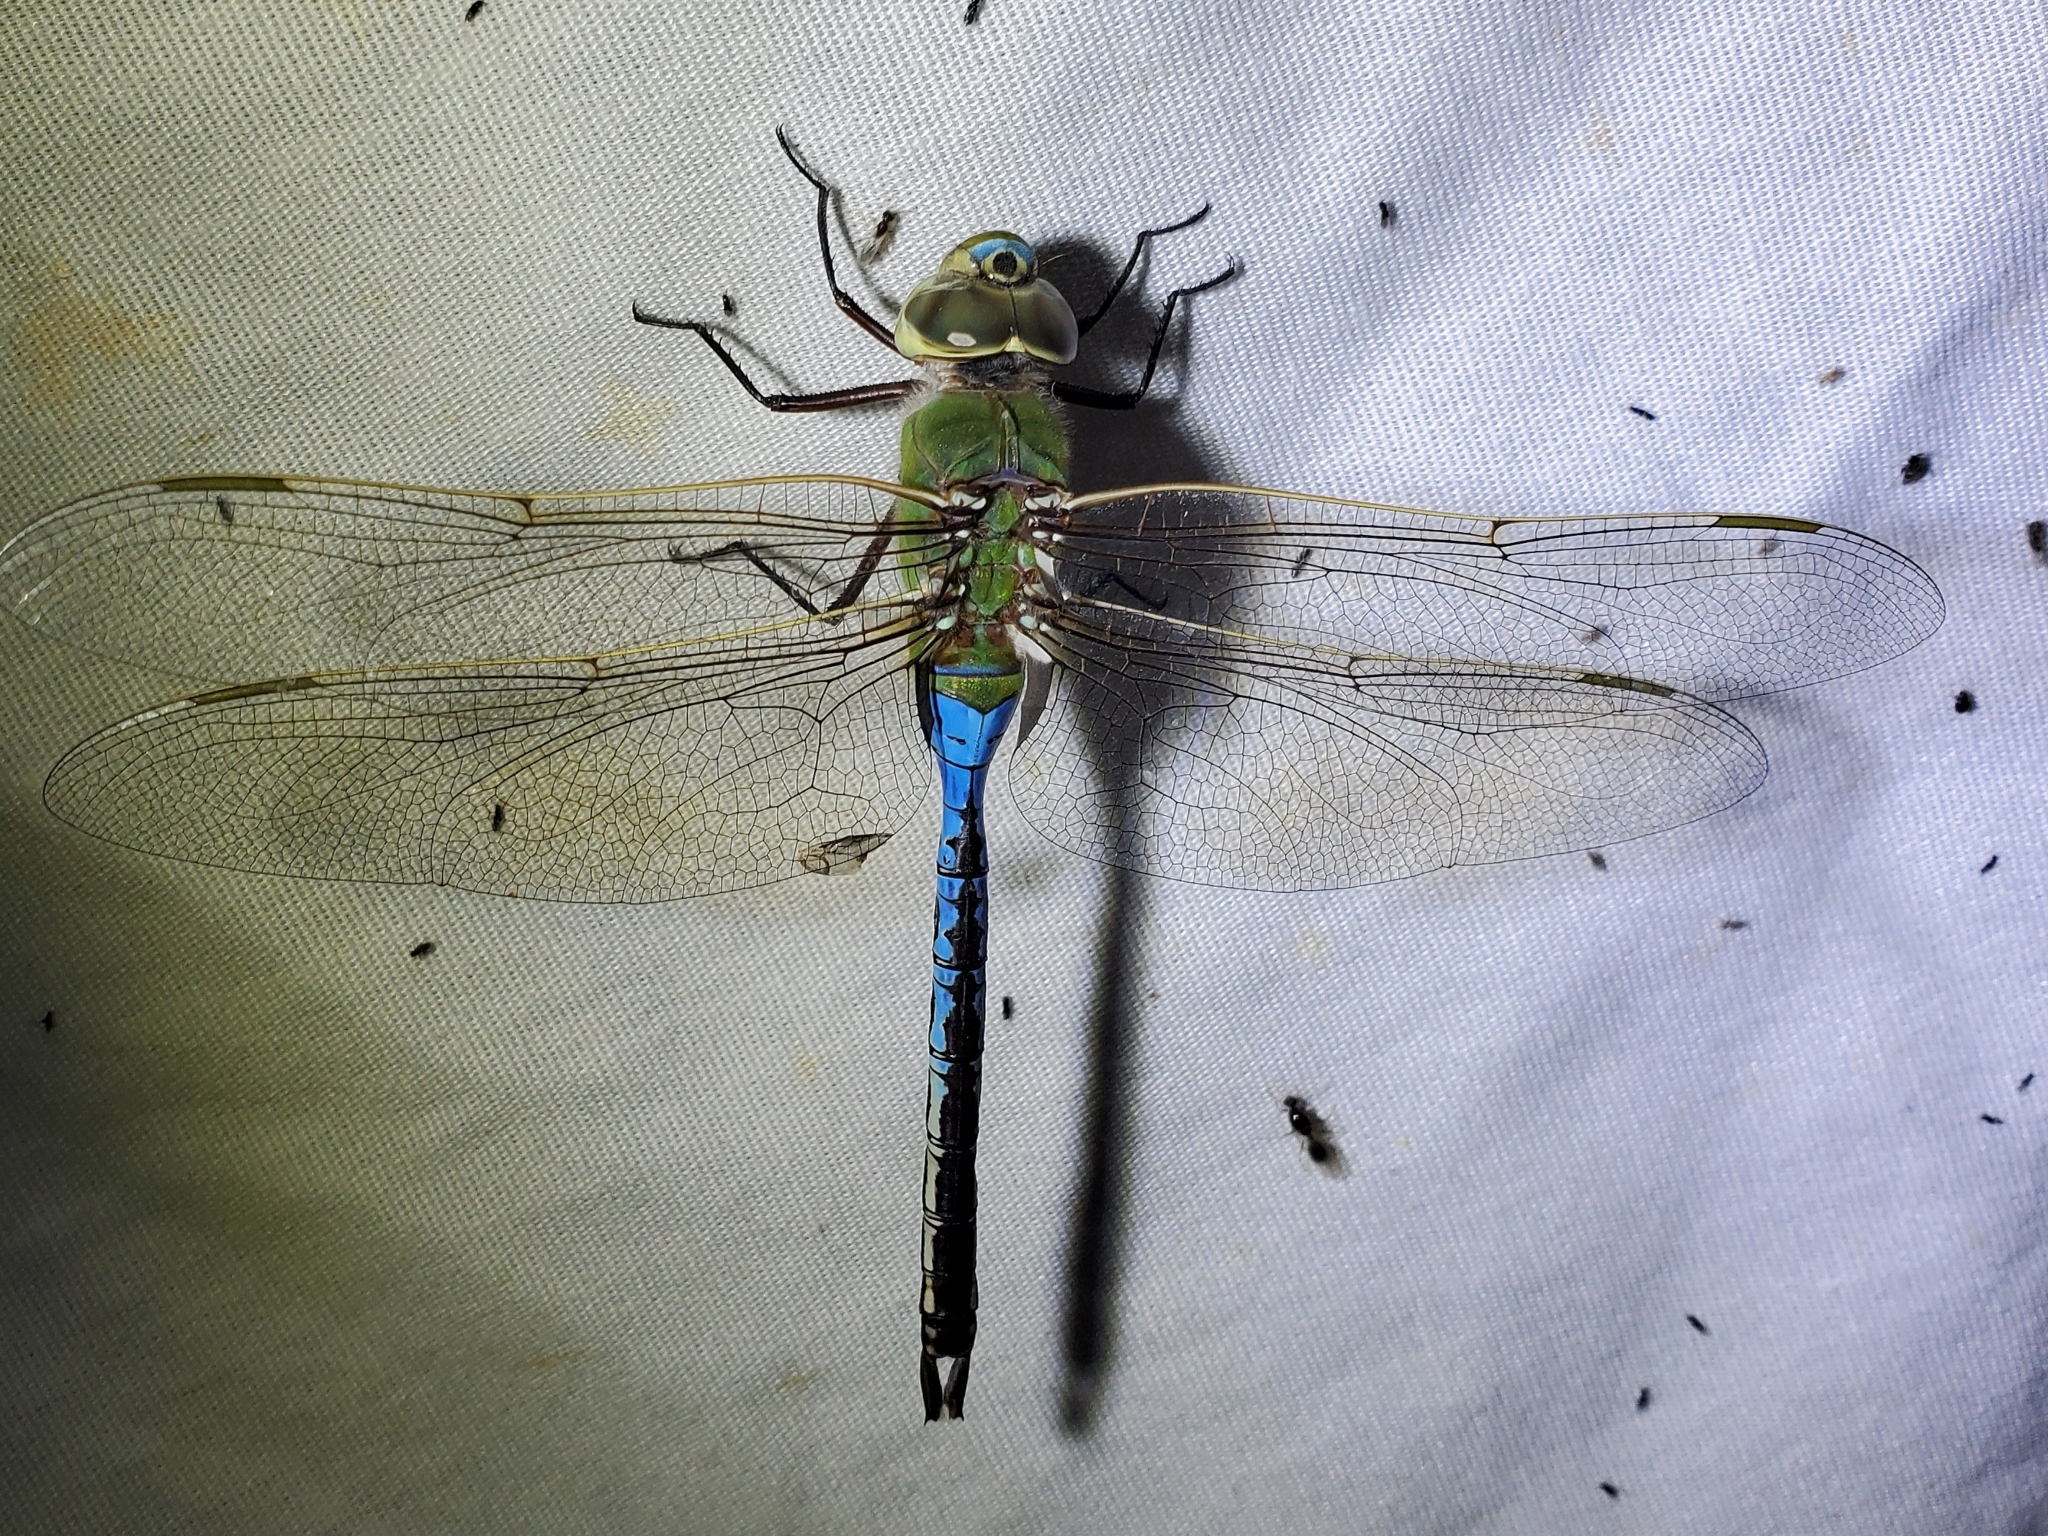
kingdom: Animalia
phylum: Arthropoda
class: Insecta
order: Odonata
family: Aeshnidae
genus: Anax
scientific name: Anax junius
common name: Common green darner
